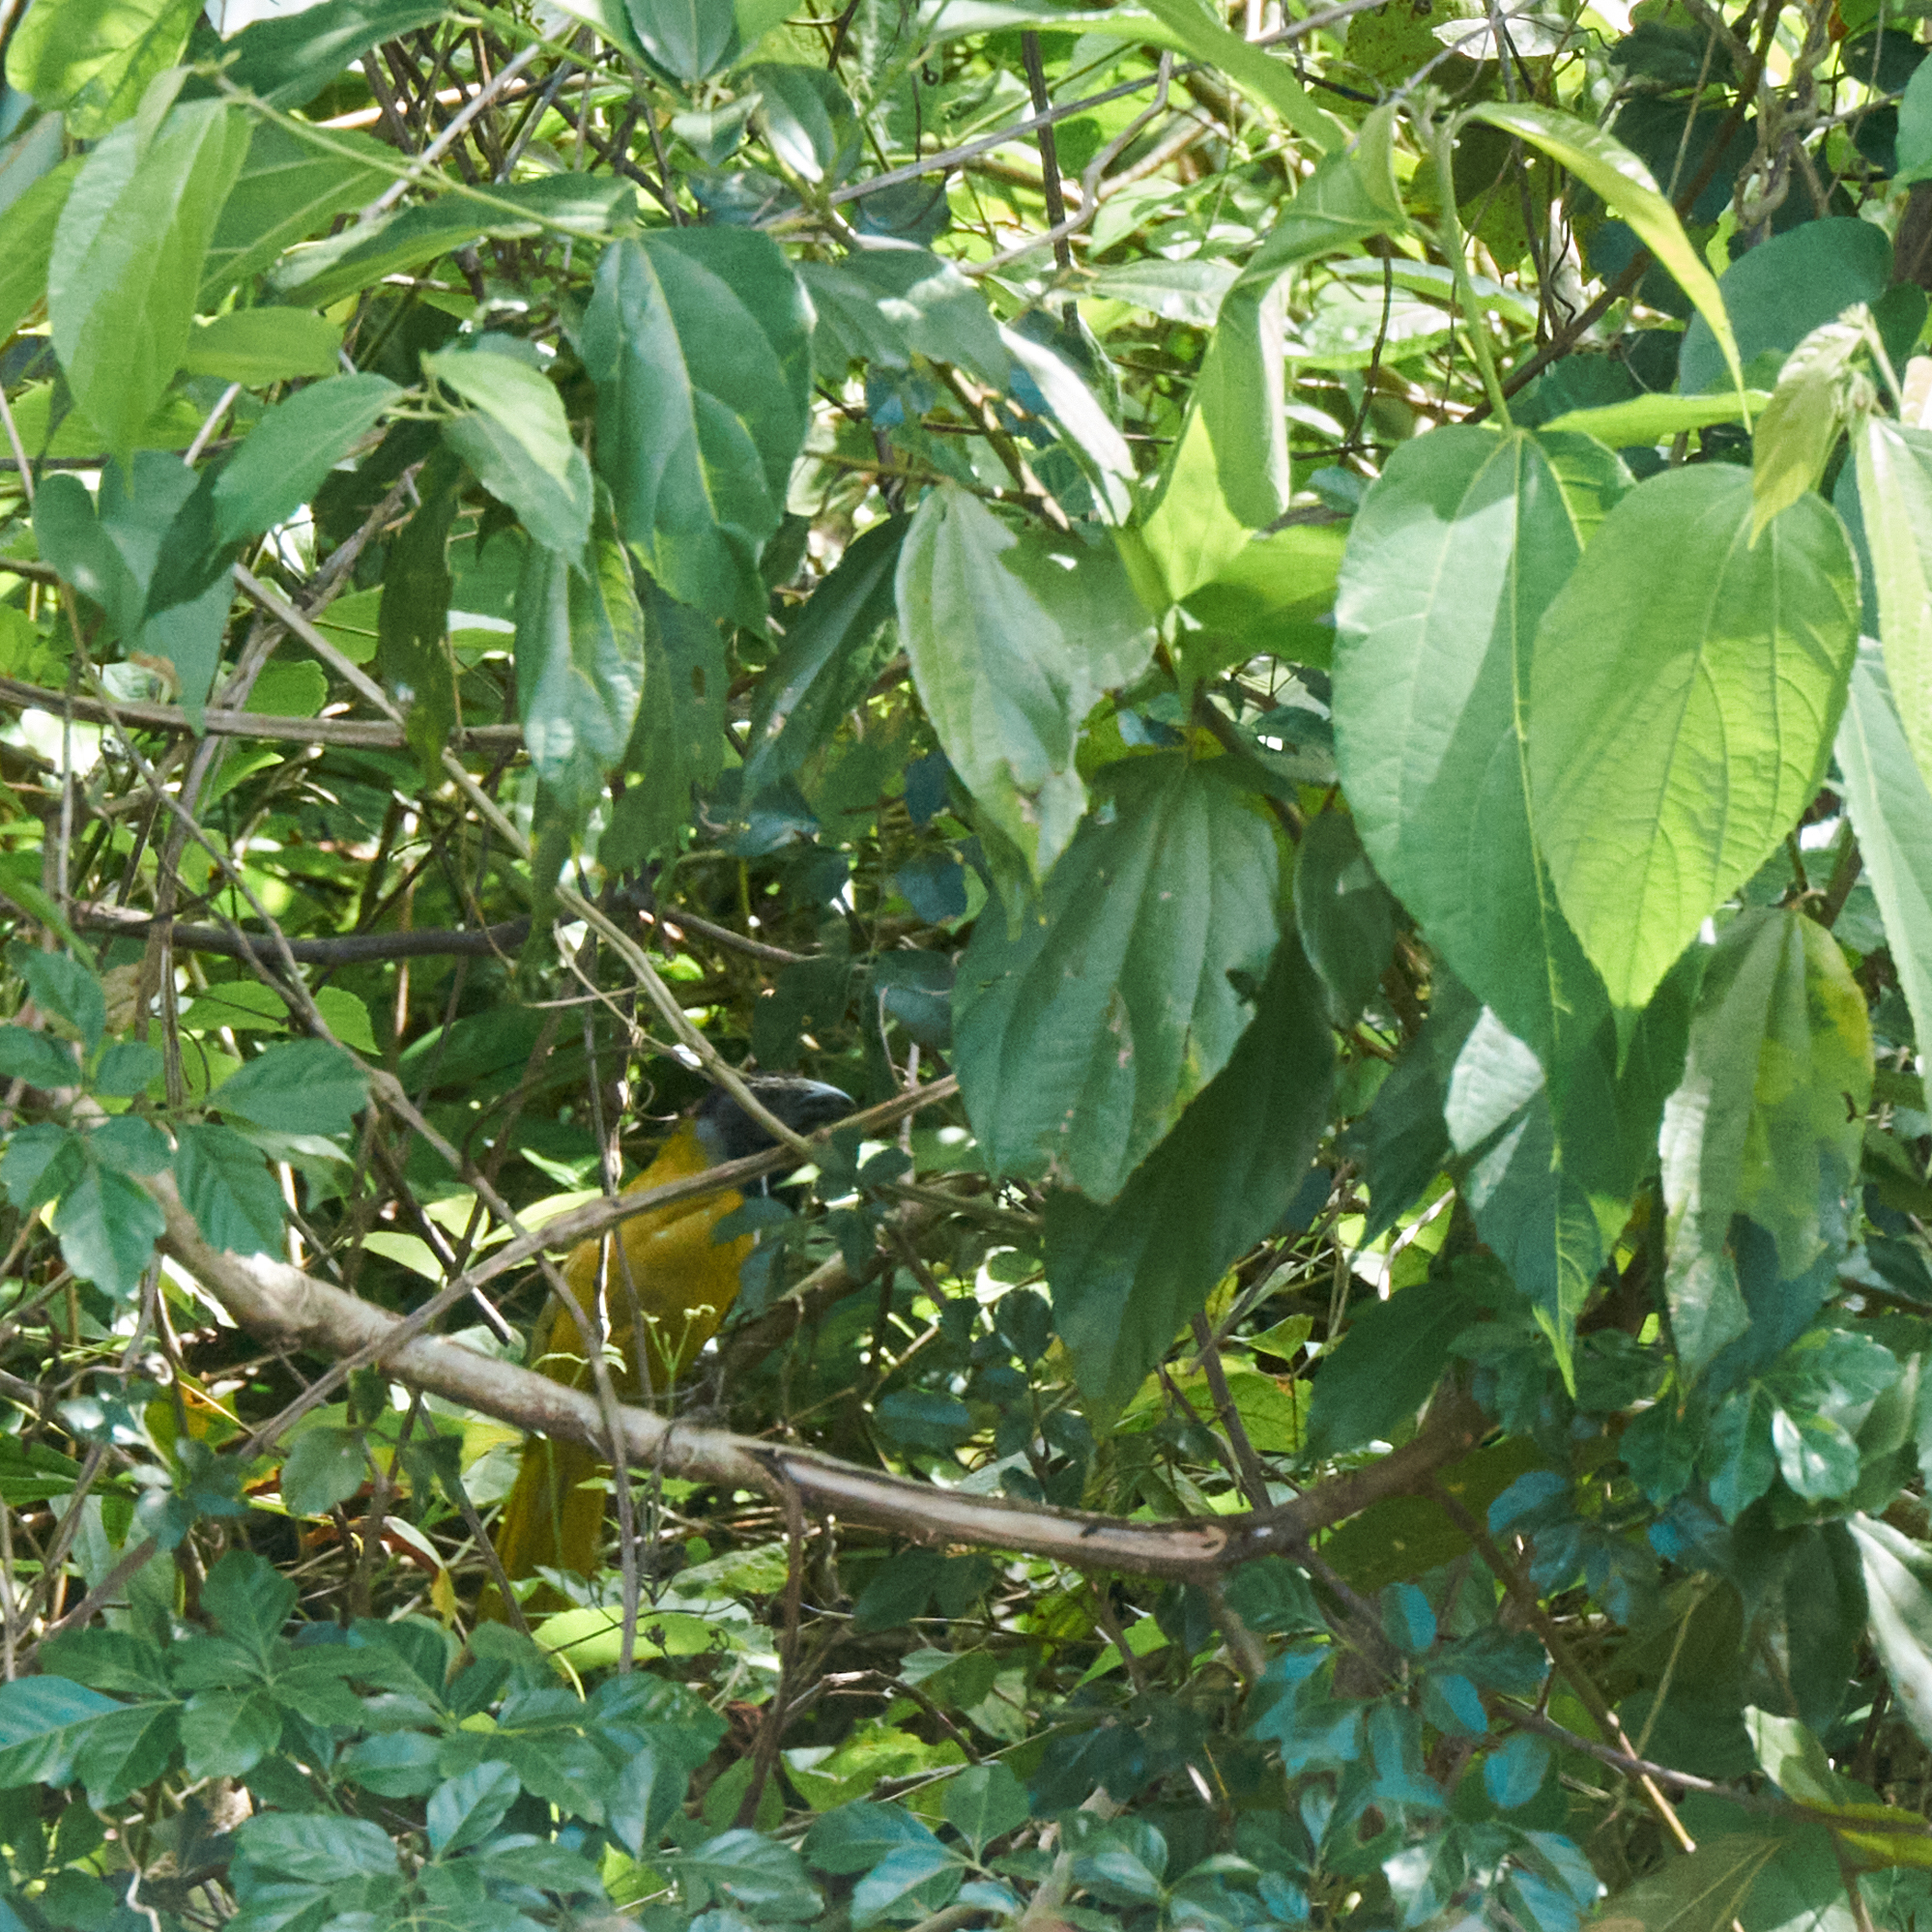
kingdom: Animalia
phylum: Chordata
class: Aves
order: Passeriformes
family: Thraupidae
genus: Saltator
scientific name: Saltator atriceps
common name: Black-headed saltator
